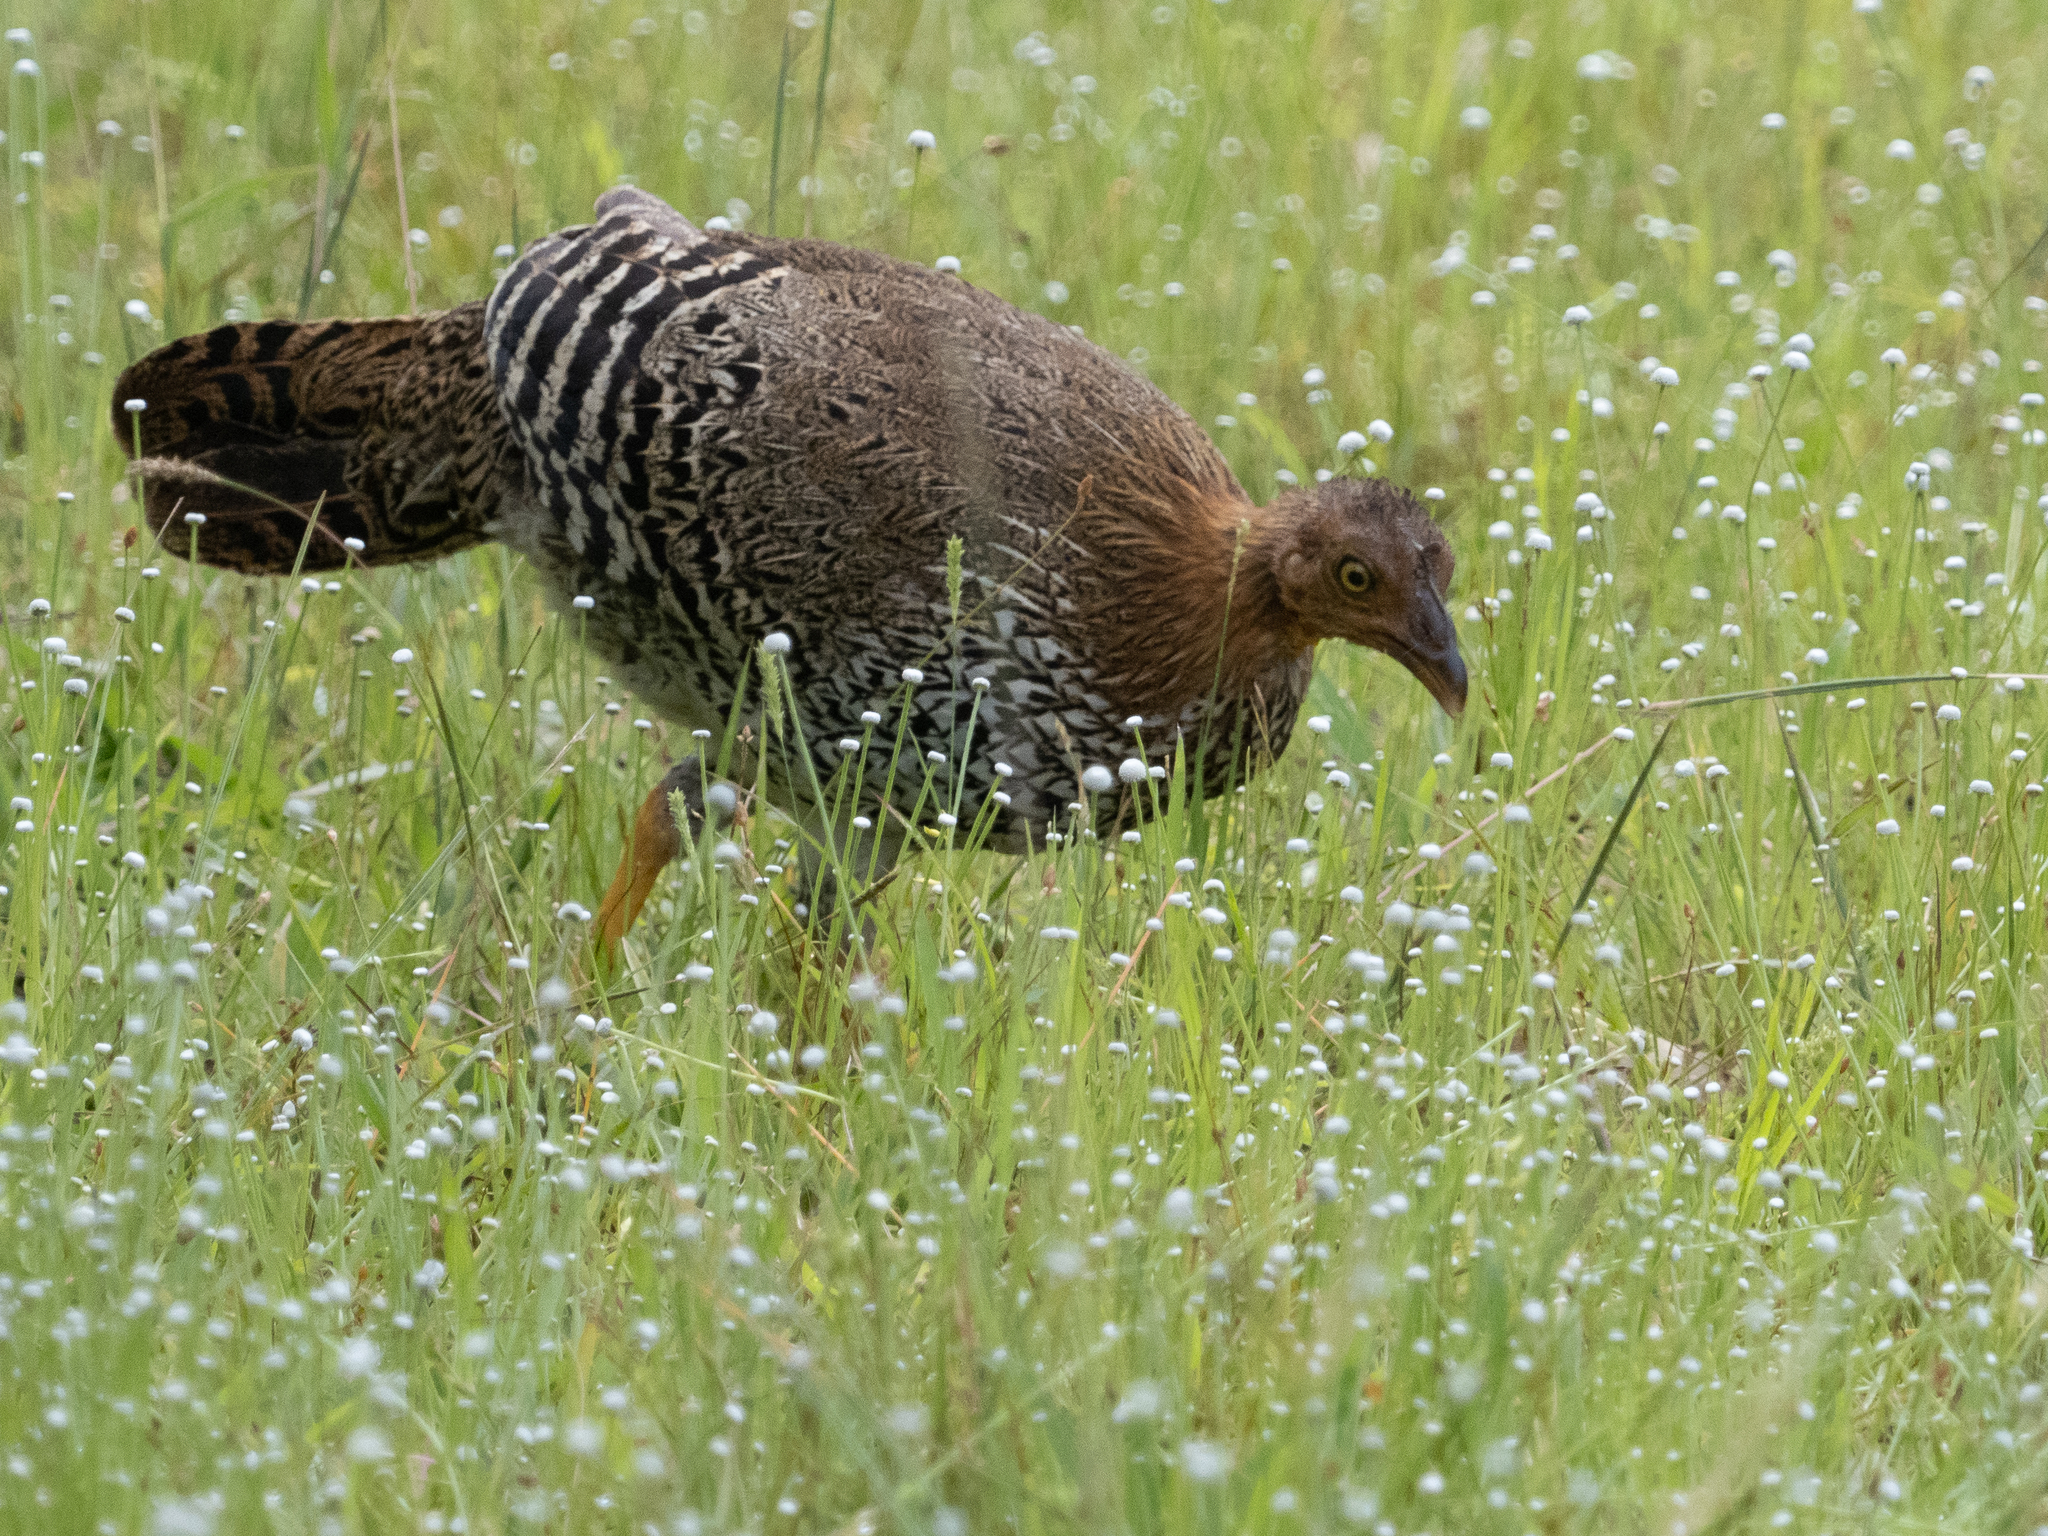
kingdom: Animalia
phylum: Chordata
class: Aves
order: Galliformes
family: Phasianidae
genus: Gallus
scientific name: Gallus lafayettii
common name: Sri lanka junglefowl
